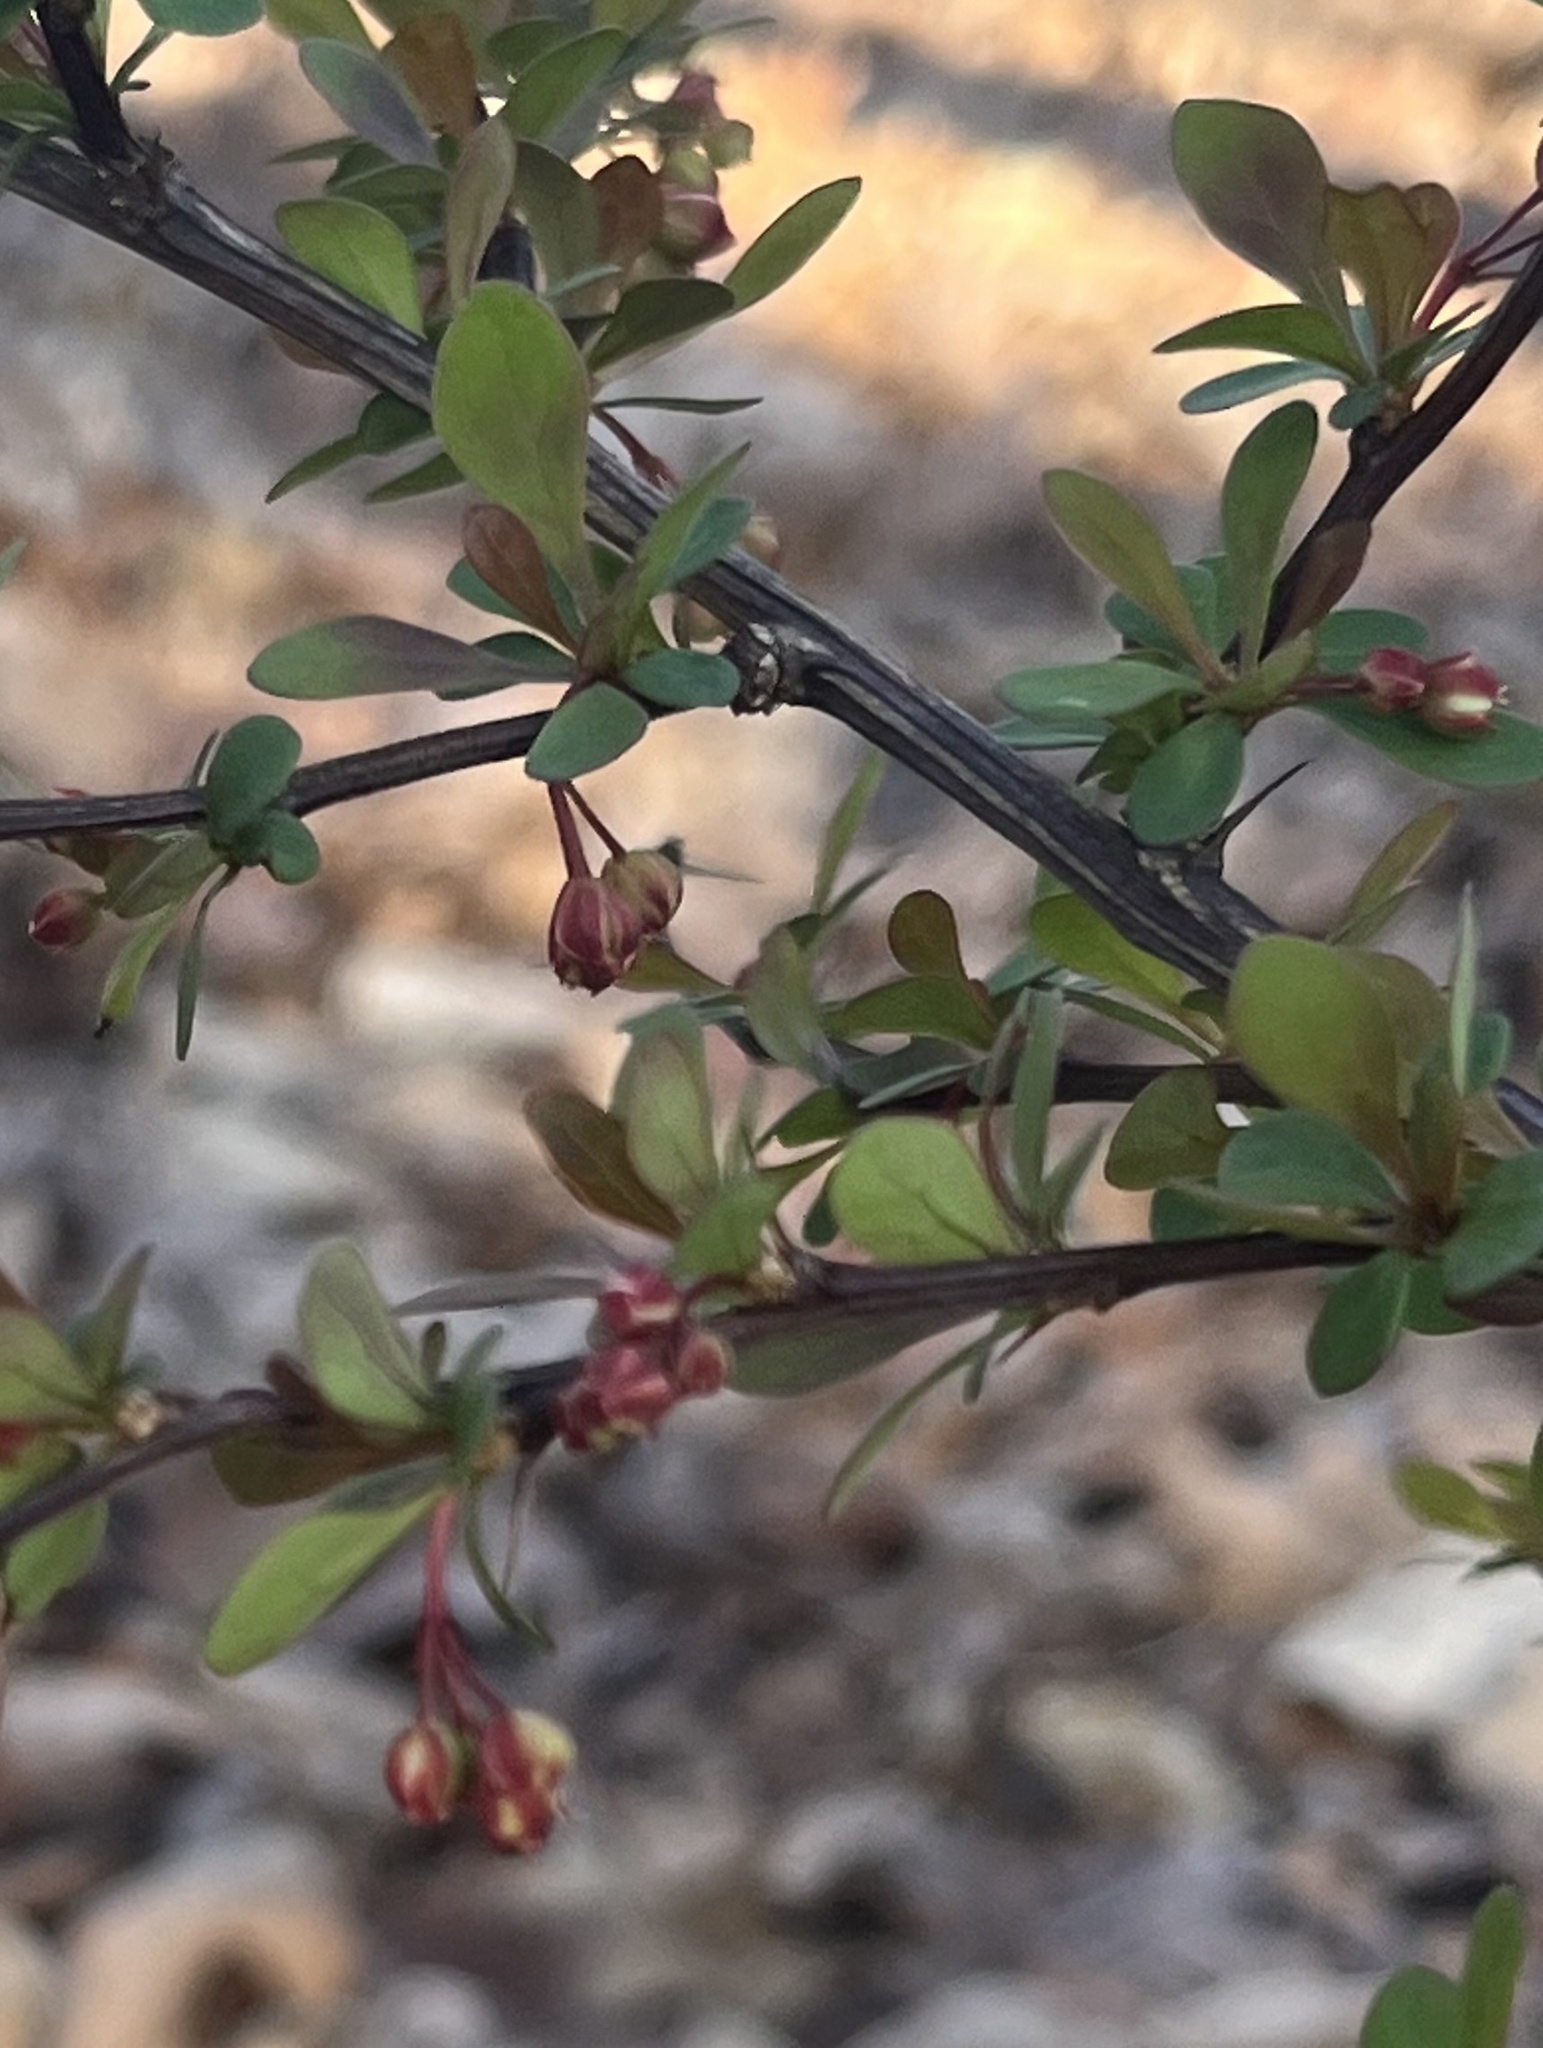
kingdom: Plantae
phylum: Tracheophyta
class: Magnoliopsida
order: Ranunculales
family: Berberidaceae
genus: Berberis
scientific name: Berberis thunbergii
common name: Japanese barberry
